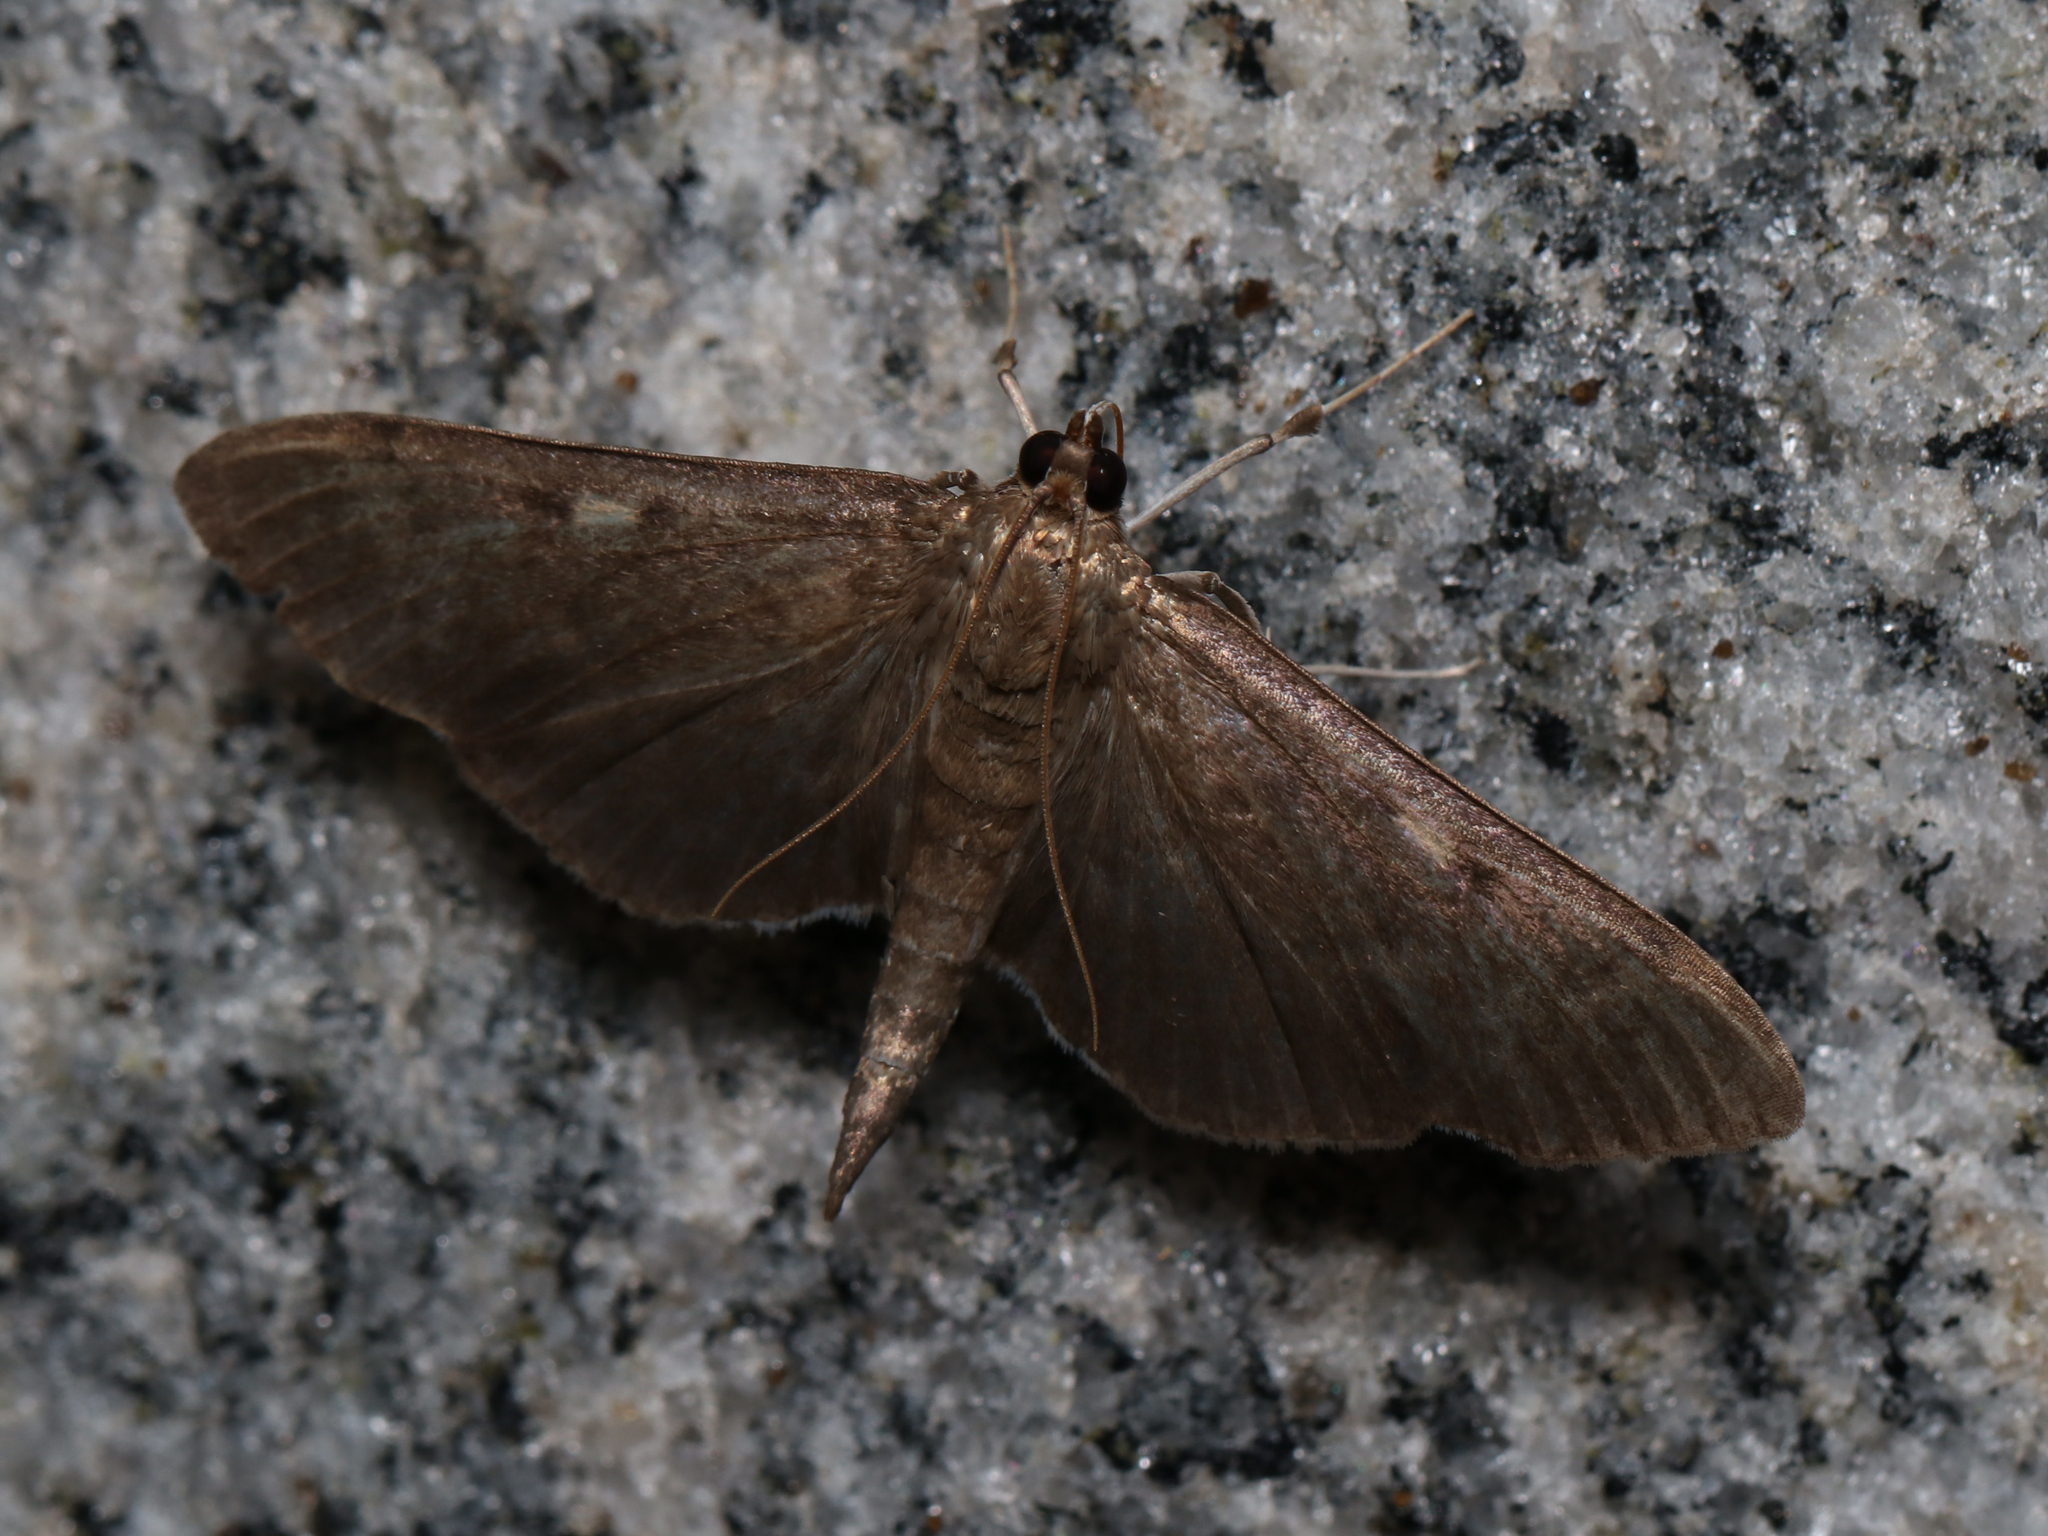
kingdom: Animalia
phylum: Arthropoda
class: Insecta
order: Lepidoptera
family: Crambidae
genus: Herpetogramma
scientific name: Herpetogramma sphingealis
